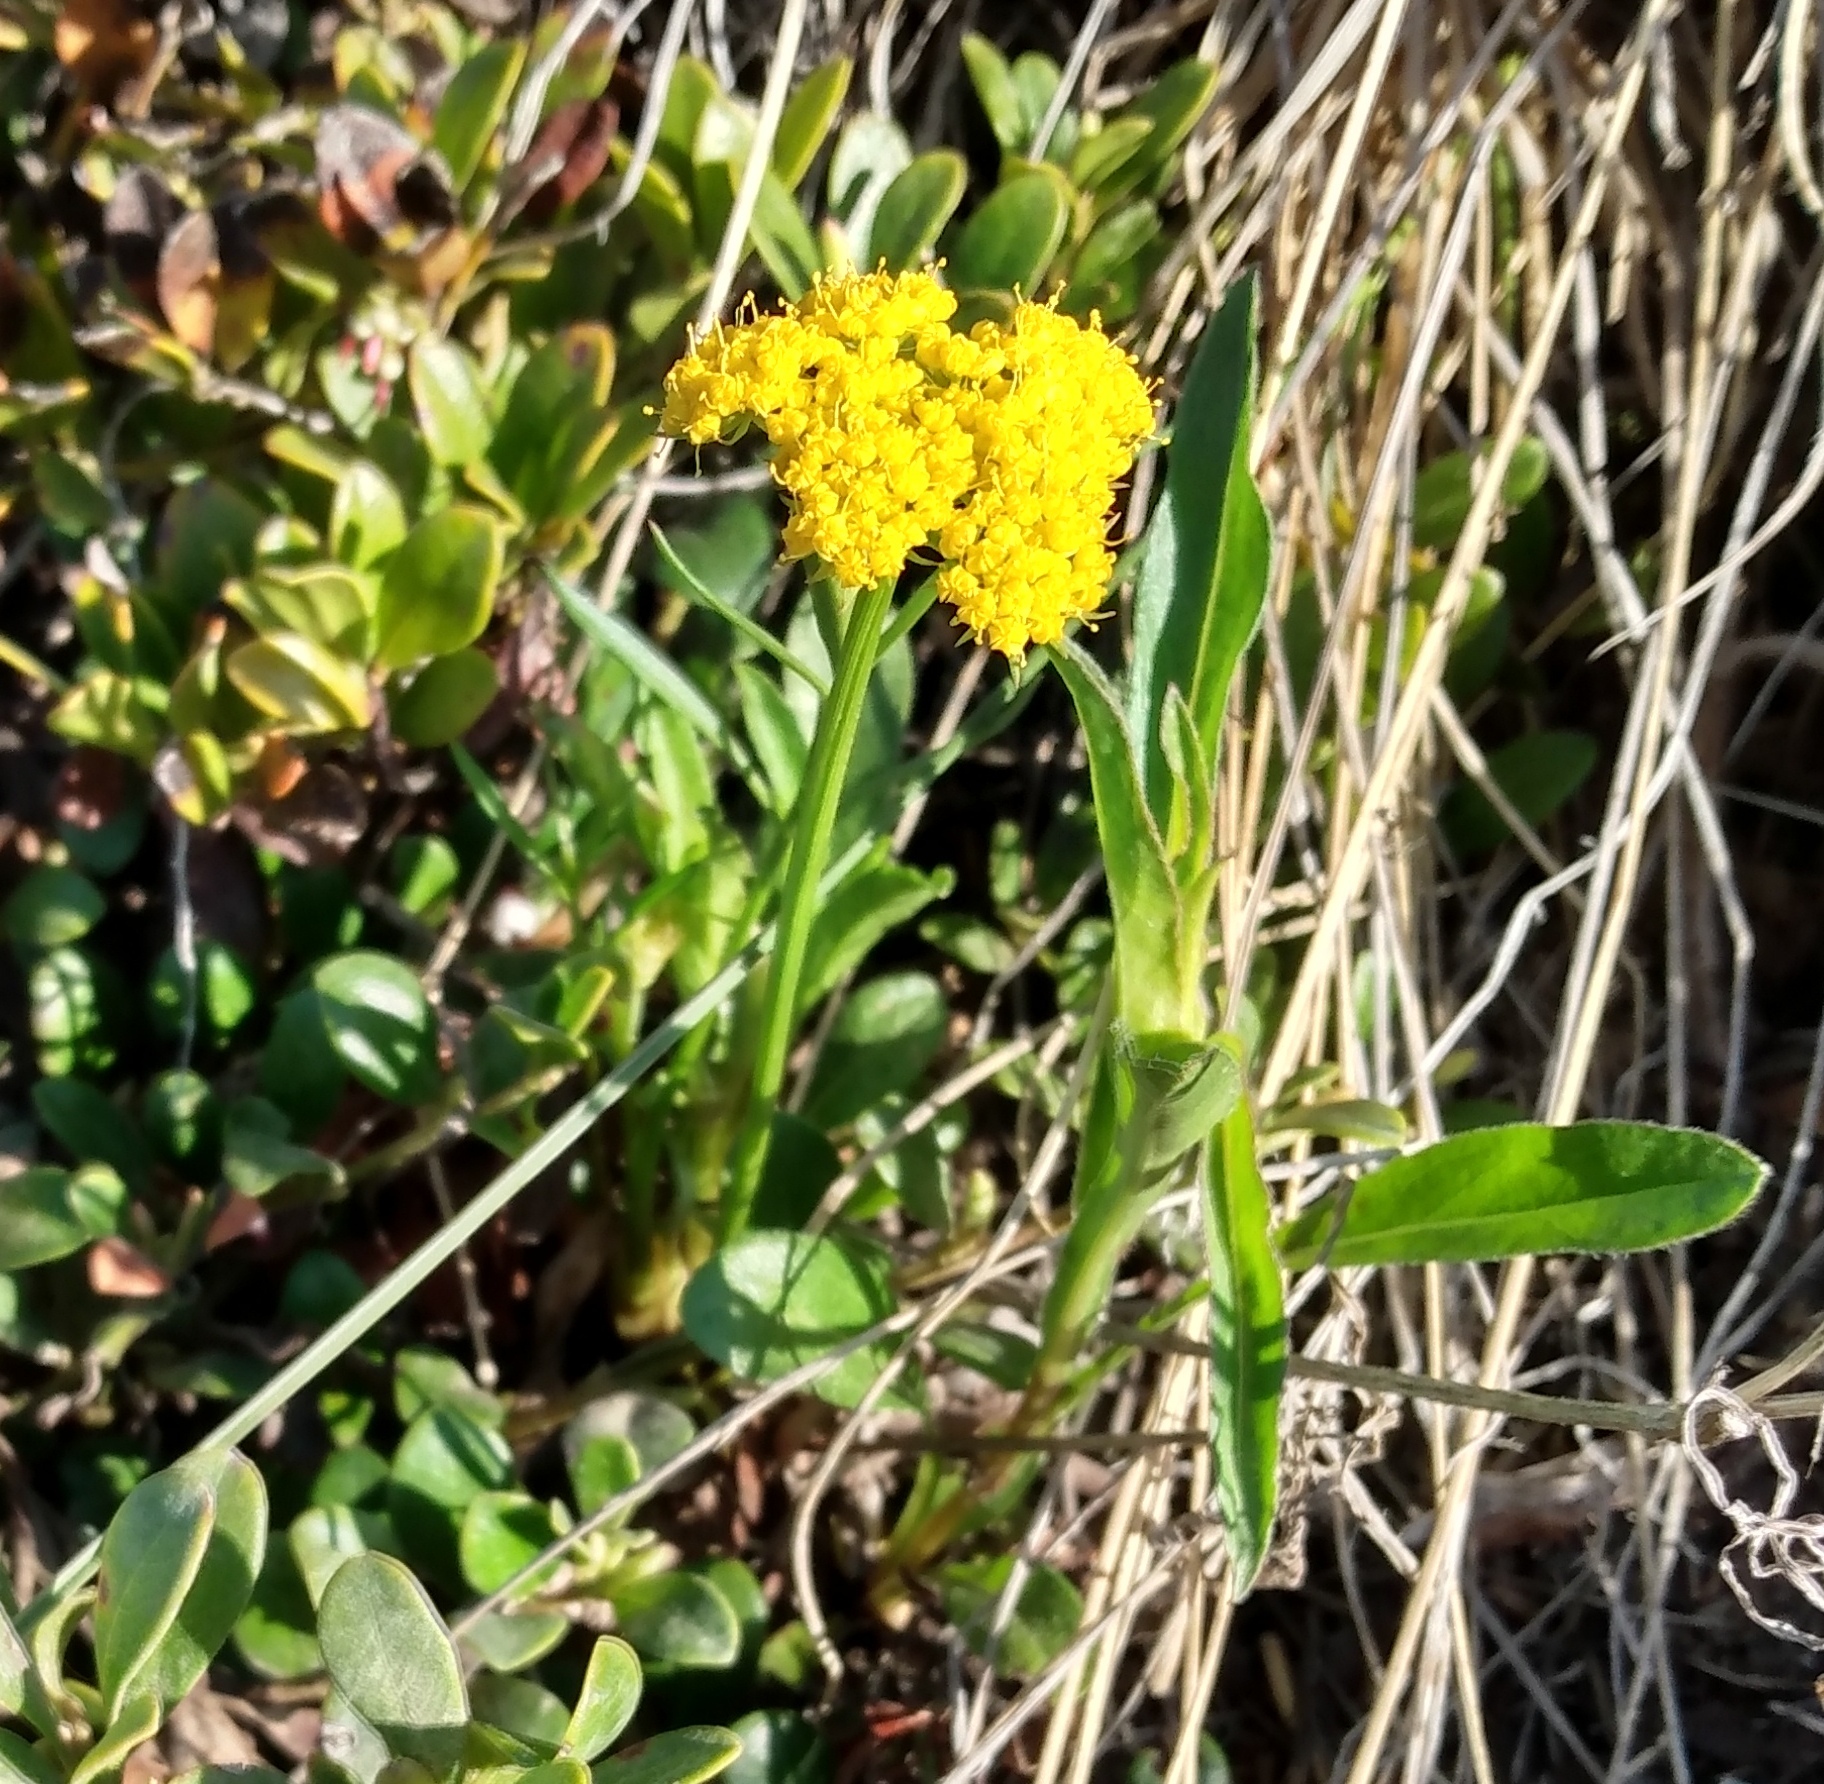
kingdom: Plantae
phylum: Tracheophyta
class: Magnoliopsida
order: Apiales
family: Apiaceae
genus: Cymopterus
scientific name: Cymopterus lemmonii
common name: Lemmon's spring-parsley
